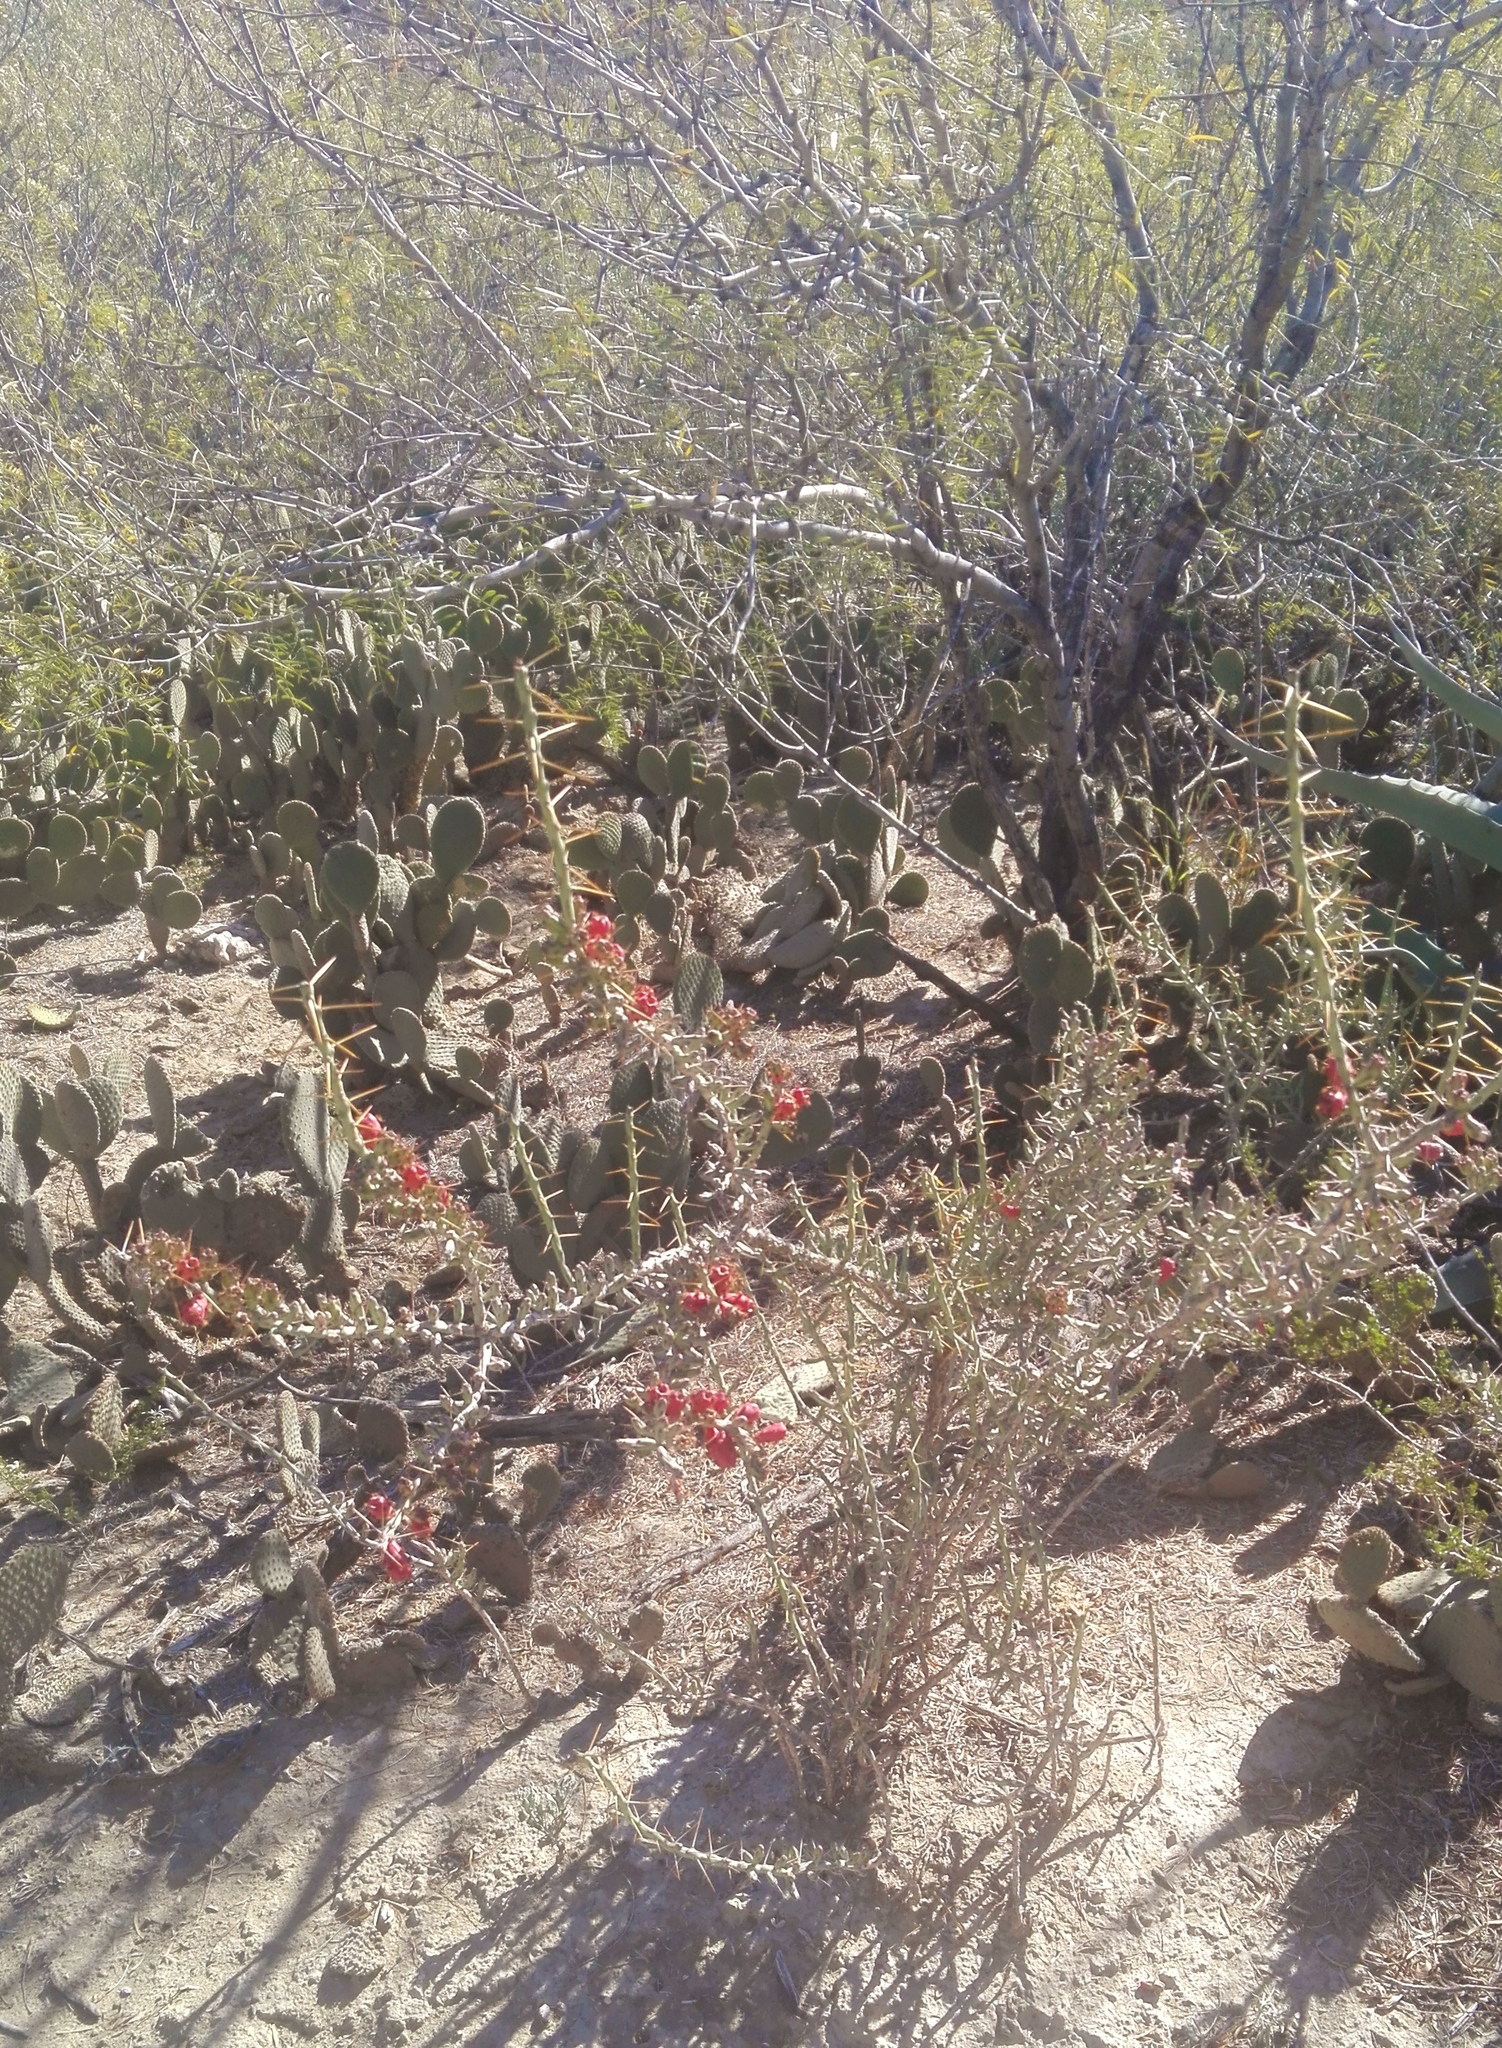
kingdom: Plantae
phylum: Tracheophyta
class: Magnoliopsida
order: Caryophyllales
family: Cactaceae
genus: Cylindropuntia
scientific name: Cylindropuntia leptocaulis
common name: Christmas cactus
